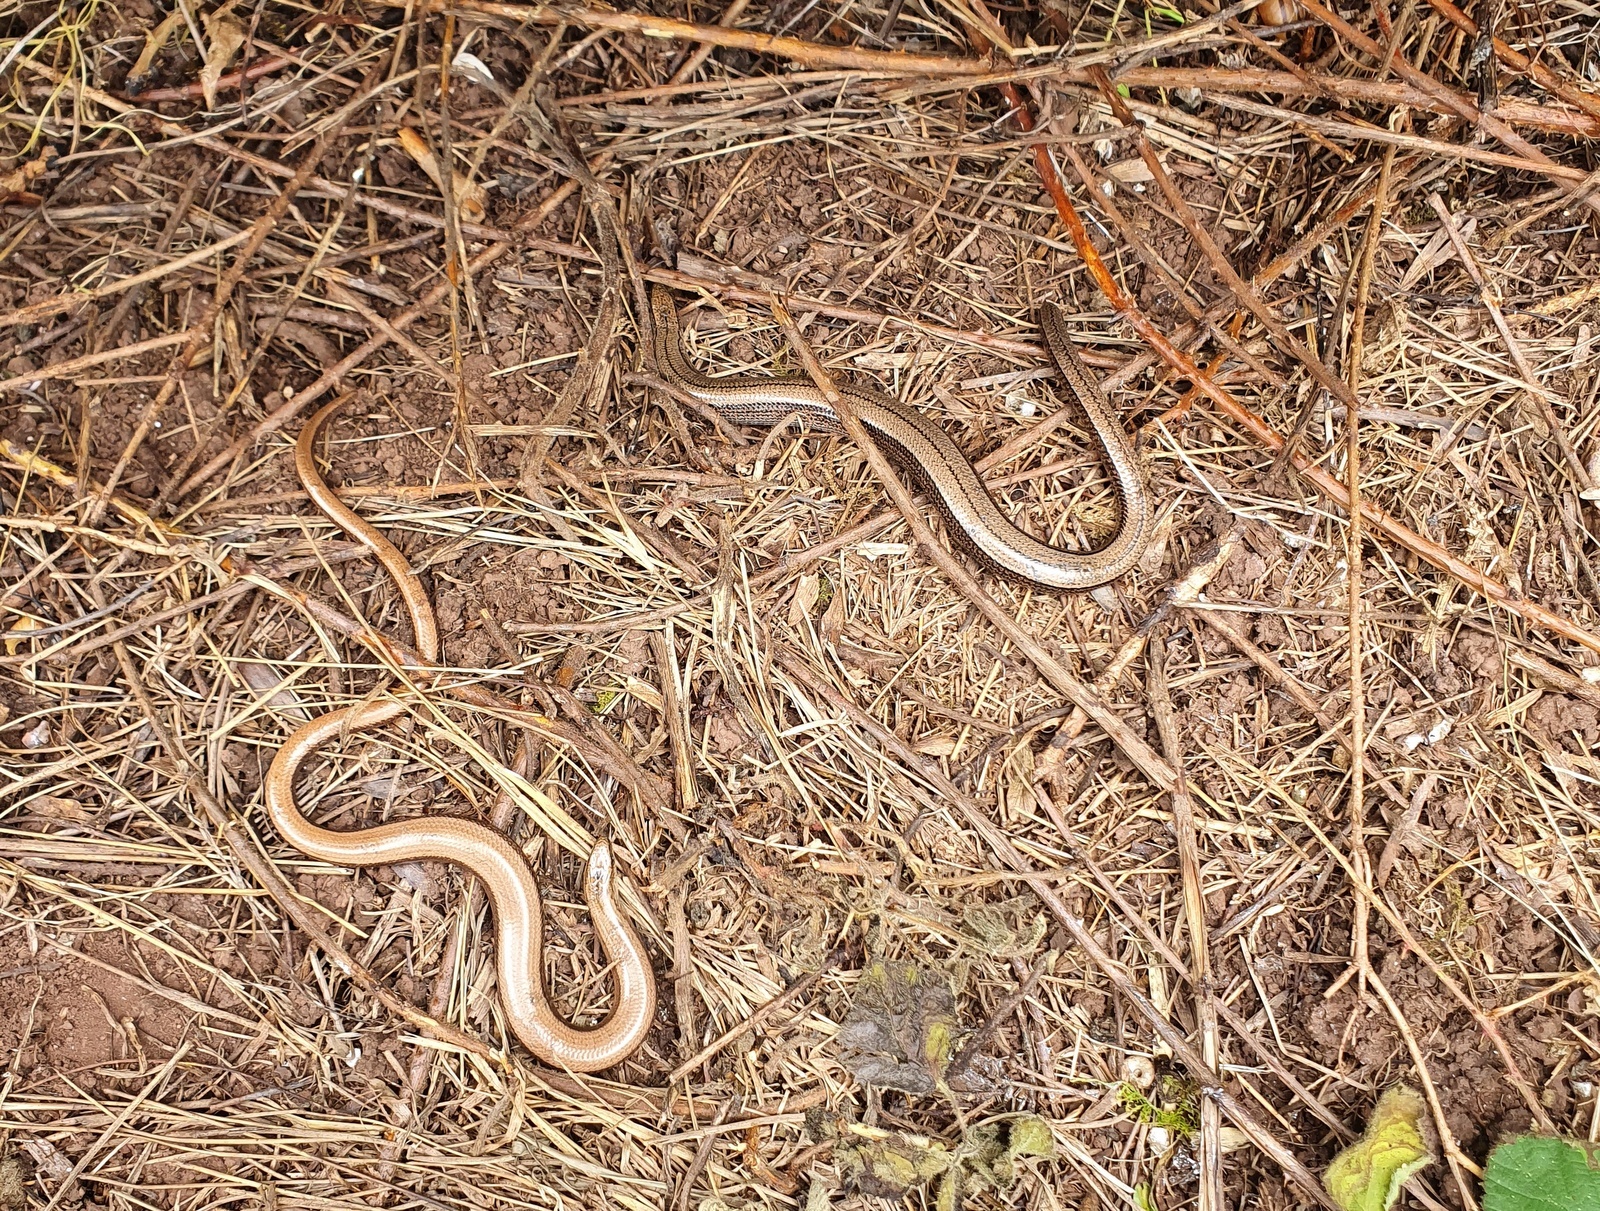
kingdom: Animalia
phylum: Chordata
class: Squamata
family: Anguidae
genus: Anguis
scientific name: Anguis fragilis
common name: Slow worm
